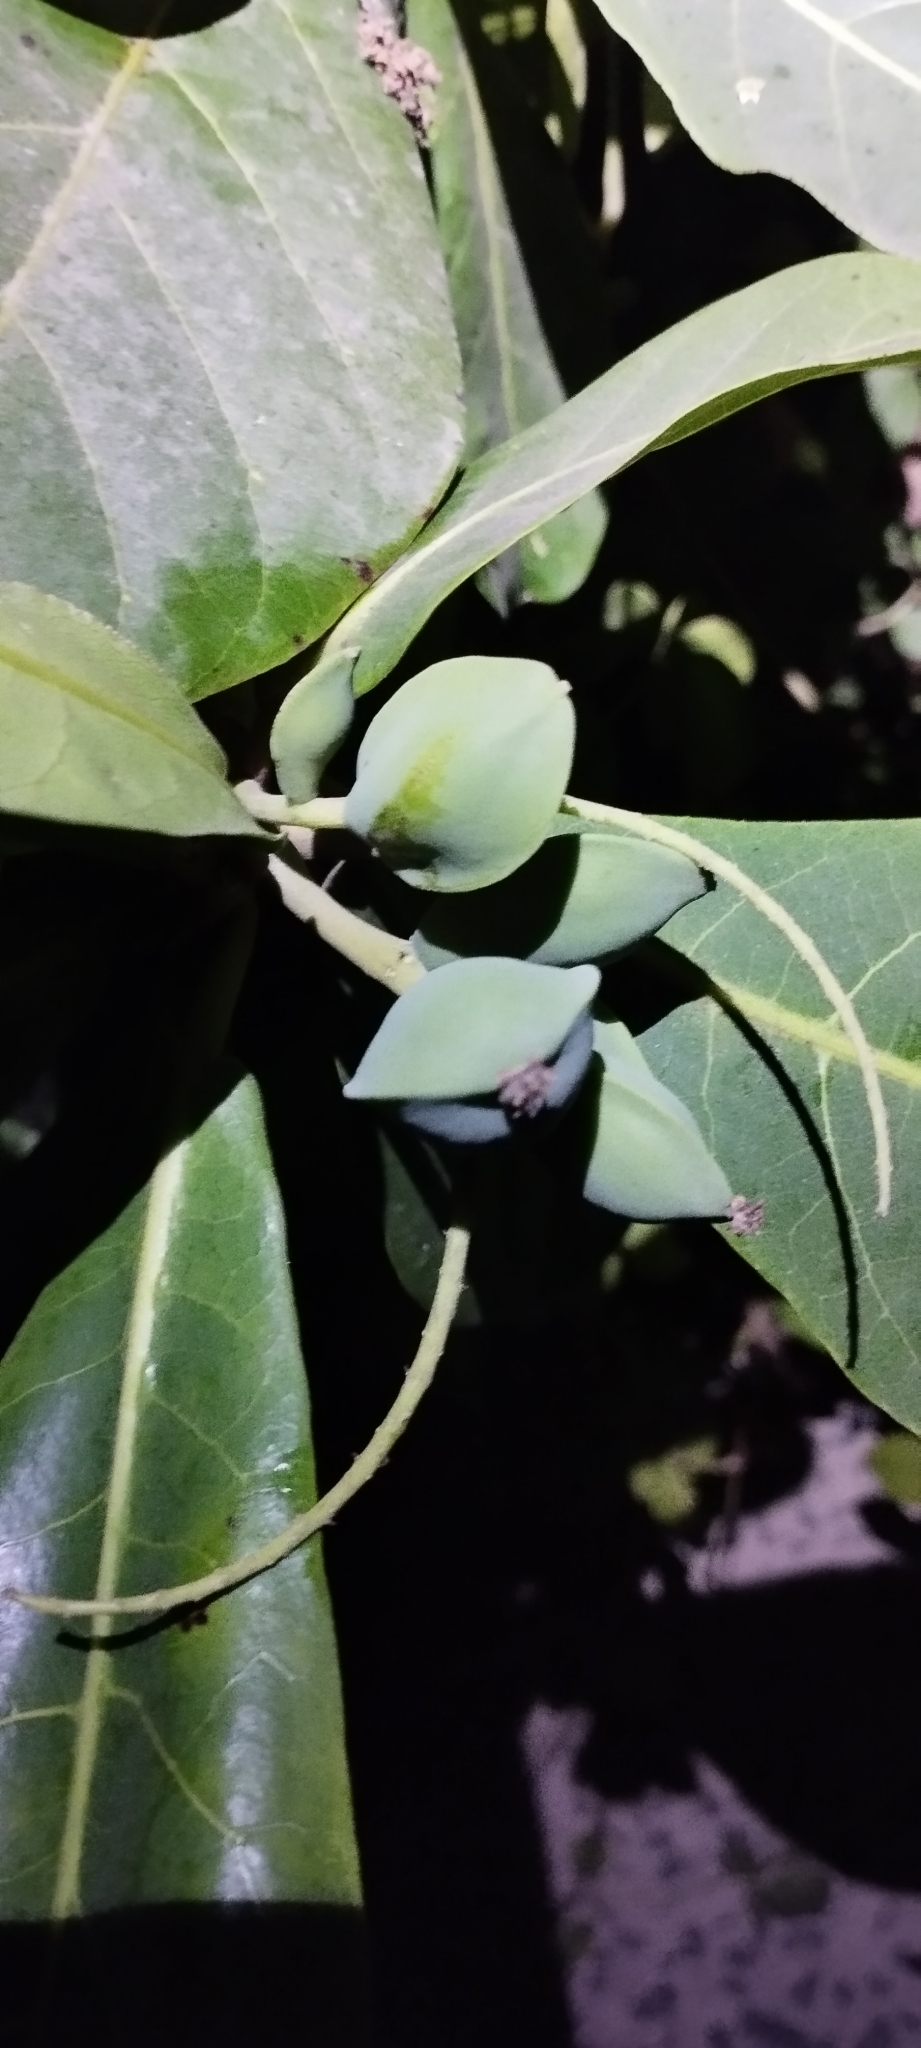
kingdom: Plantae
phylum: Tracheophyta
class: Magnoliopsida
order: Myrtales
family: Combretaceae
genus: Terminalia
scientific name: Terminalia catappa
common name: Tropical almond
